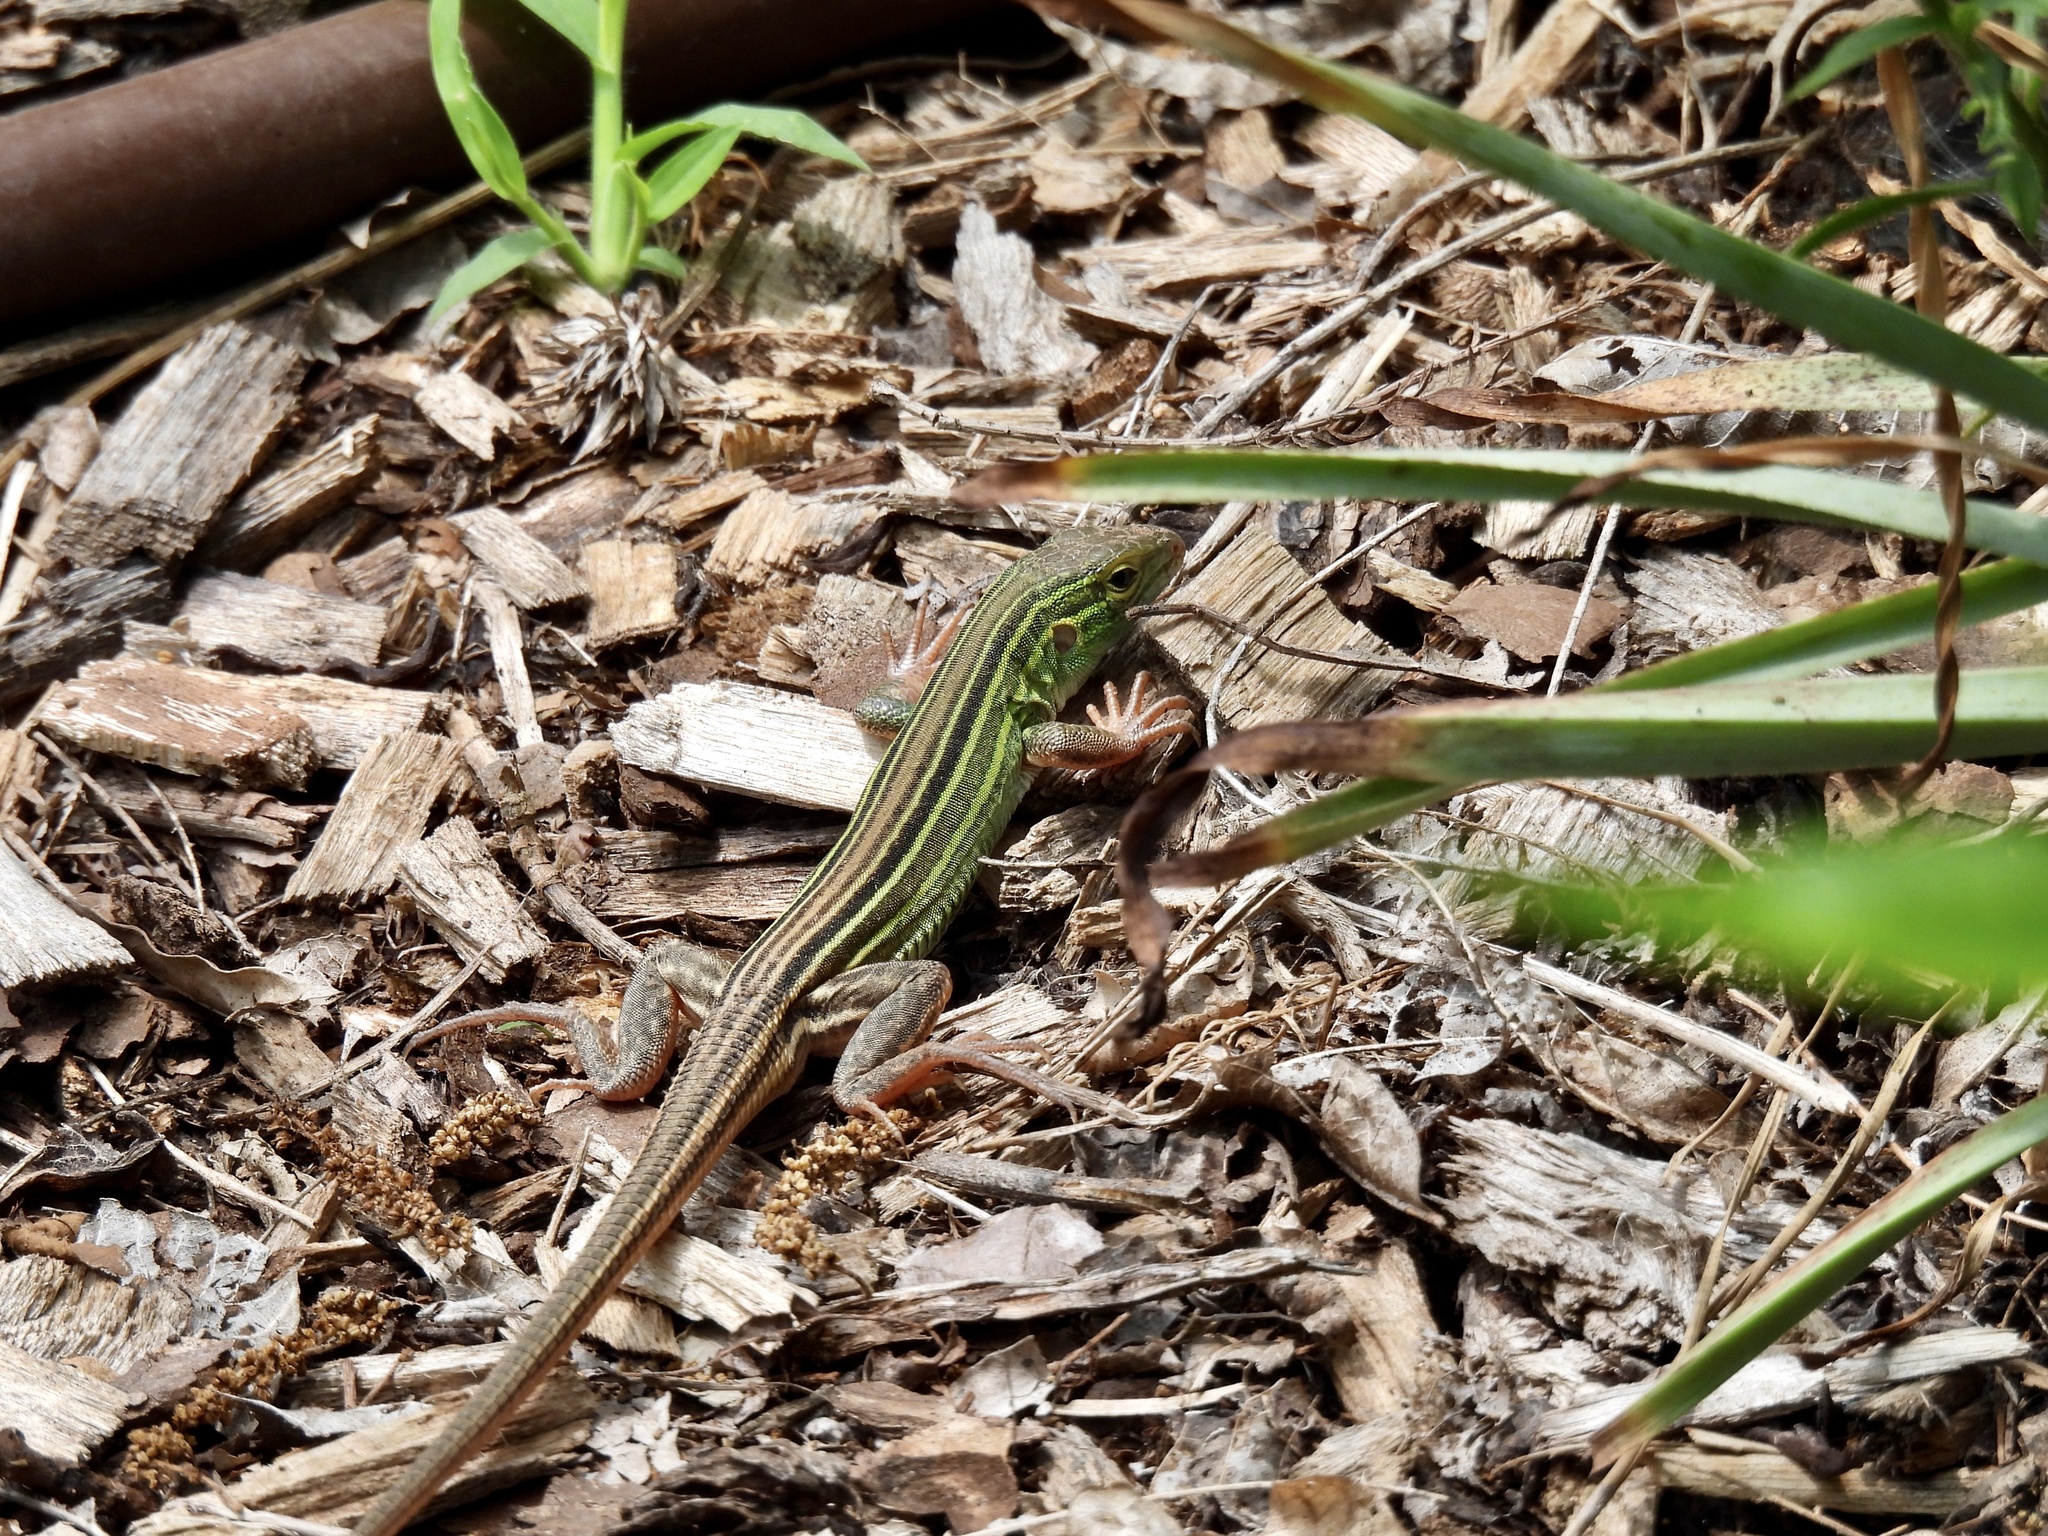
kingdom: Animalia
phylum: Chordata
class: Squamata
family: Teiidae
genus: Aspidoscelis
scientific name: Aspidoscelis sexlineatus
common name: Six-lined racerunner
